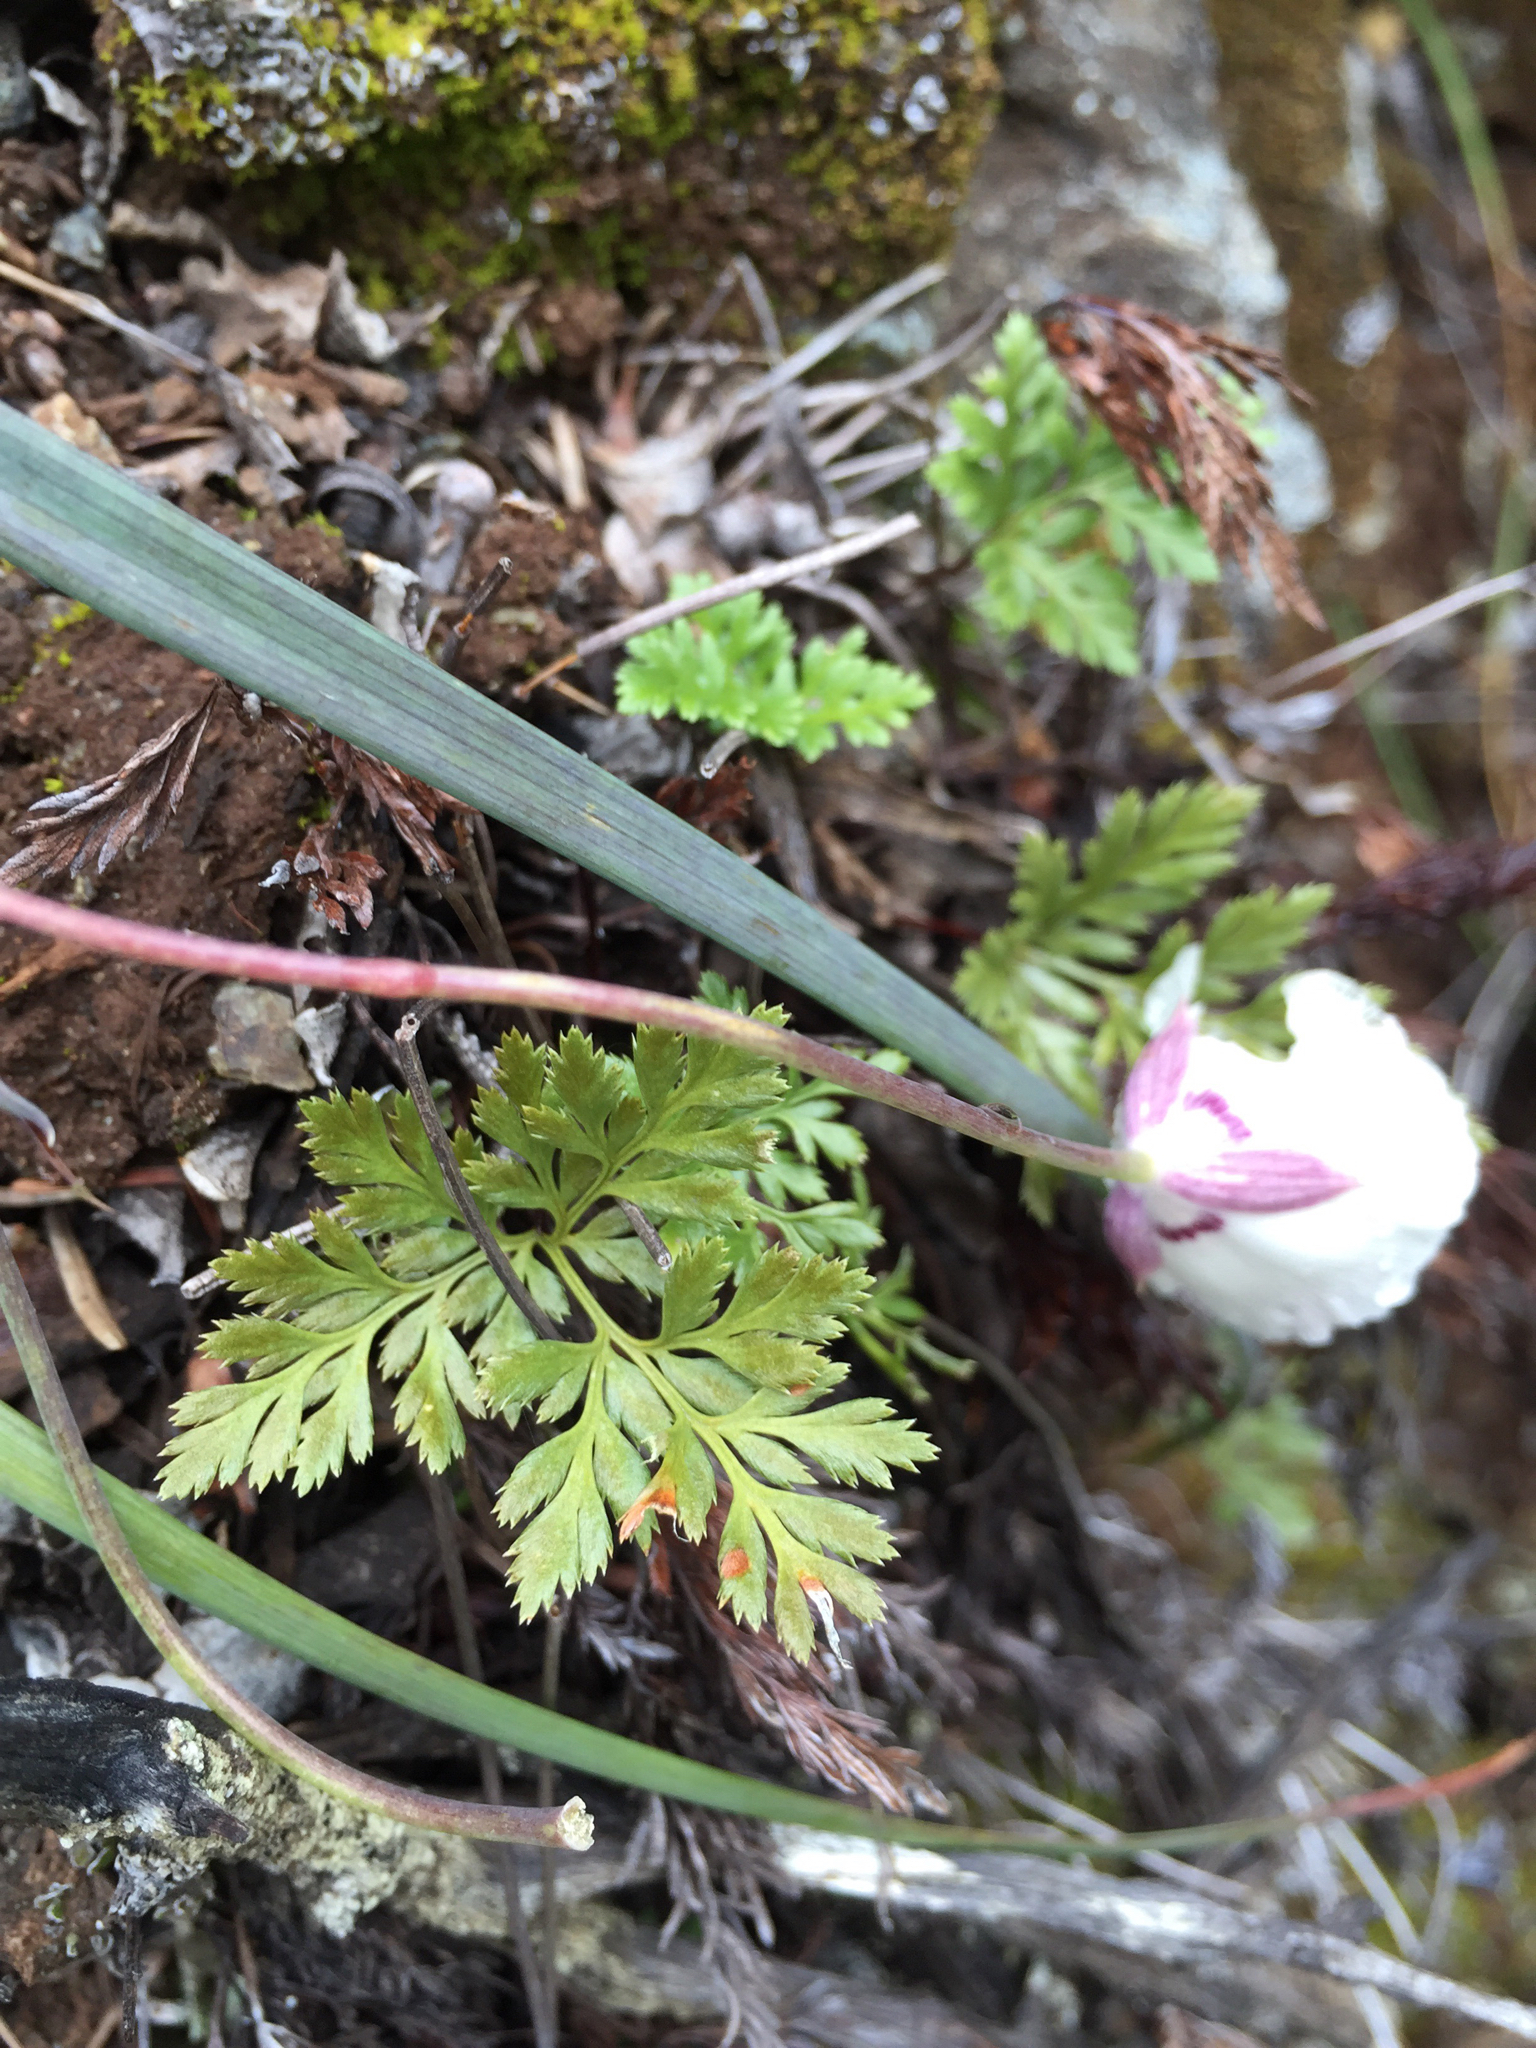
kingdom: Plantae
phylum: Tracheophyta
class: Polypodiopsida
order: Polypodiales
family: Pteridaceae
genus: Aspidotis
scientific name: Aspidotis densa
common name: Indian's dream
